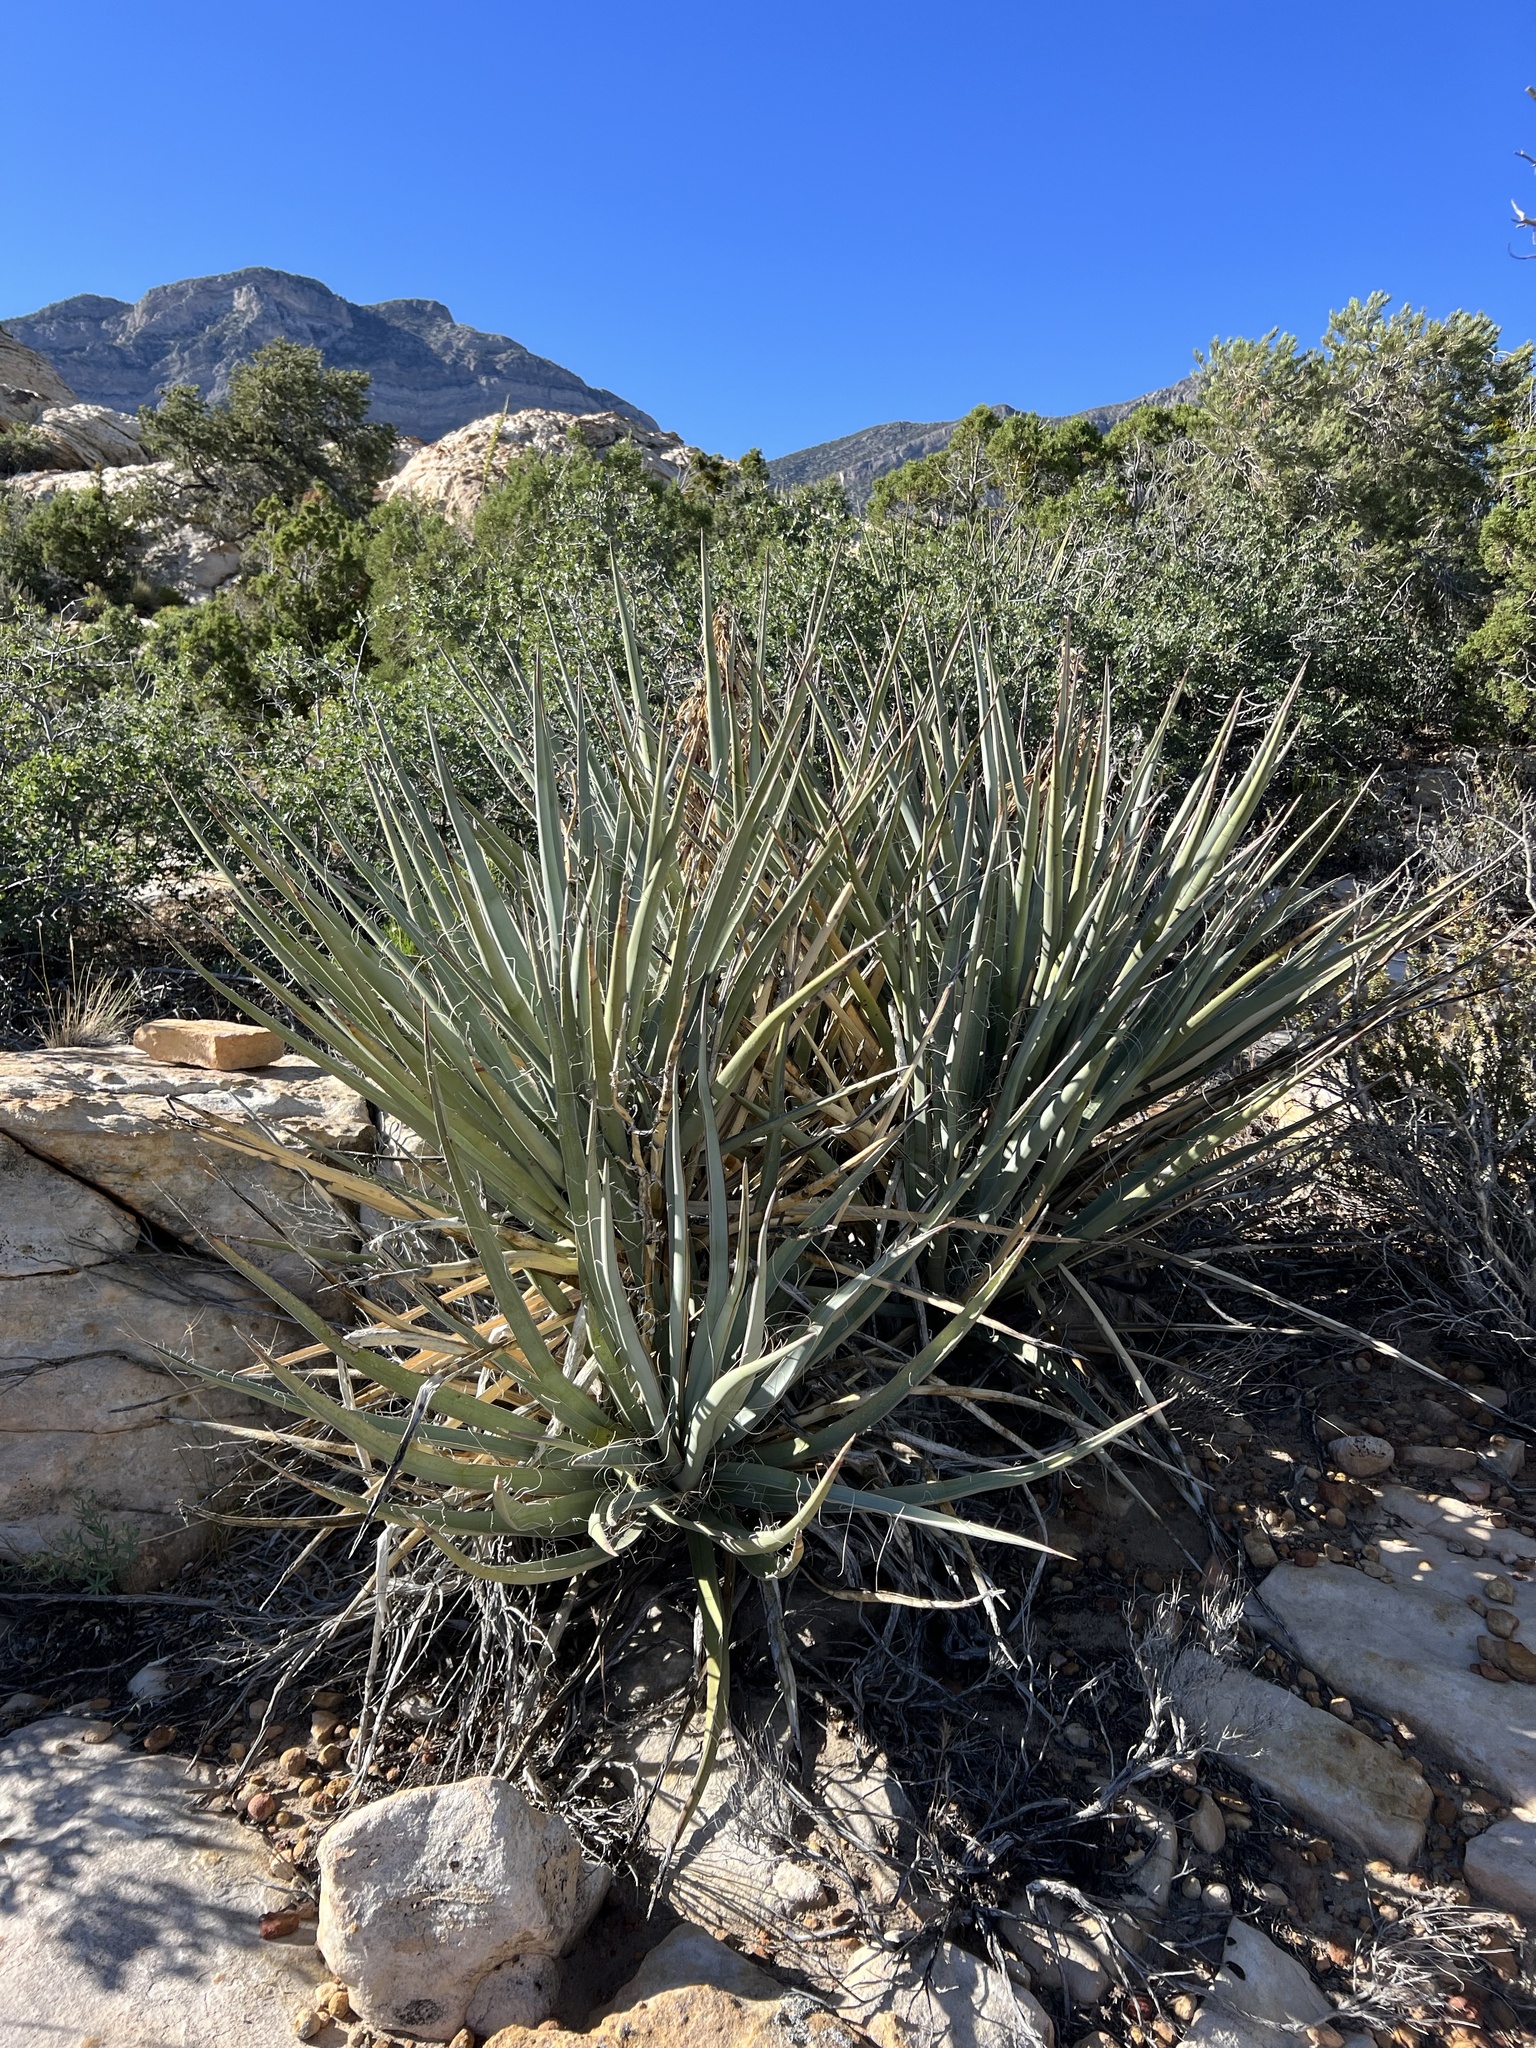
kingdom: Plantae
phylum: Tracheophyta
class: Liliopsida
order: Asparagales
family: Asparagaceae
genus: Yucca
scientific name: Yucca baccata
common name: Banana yucca
